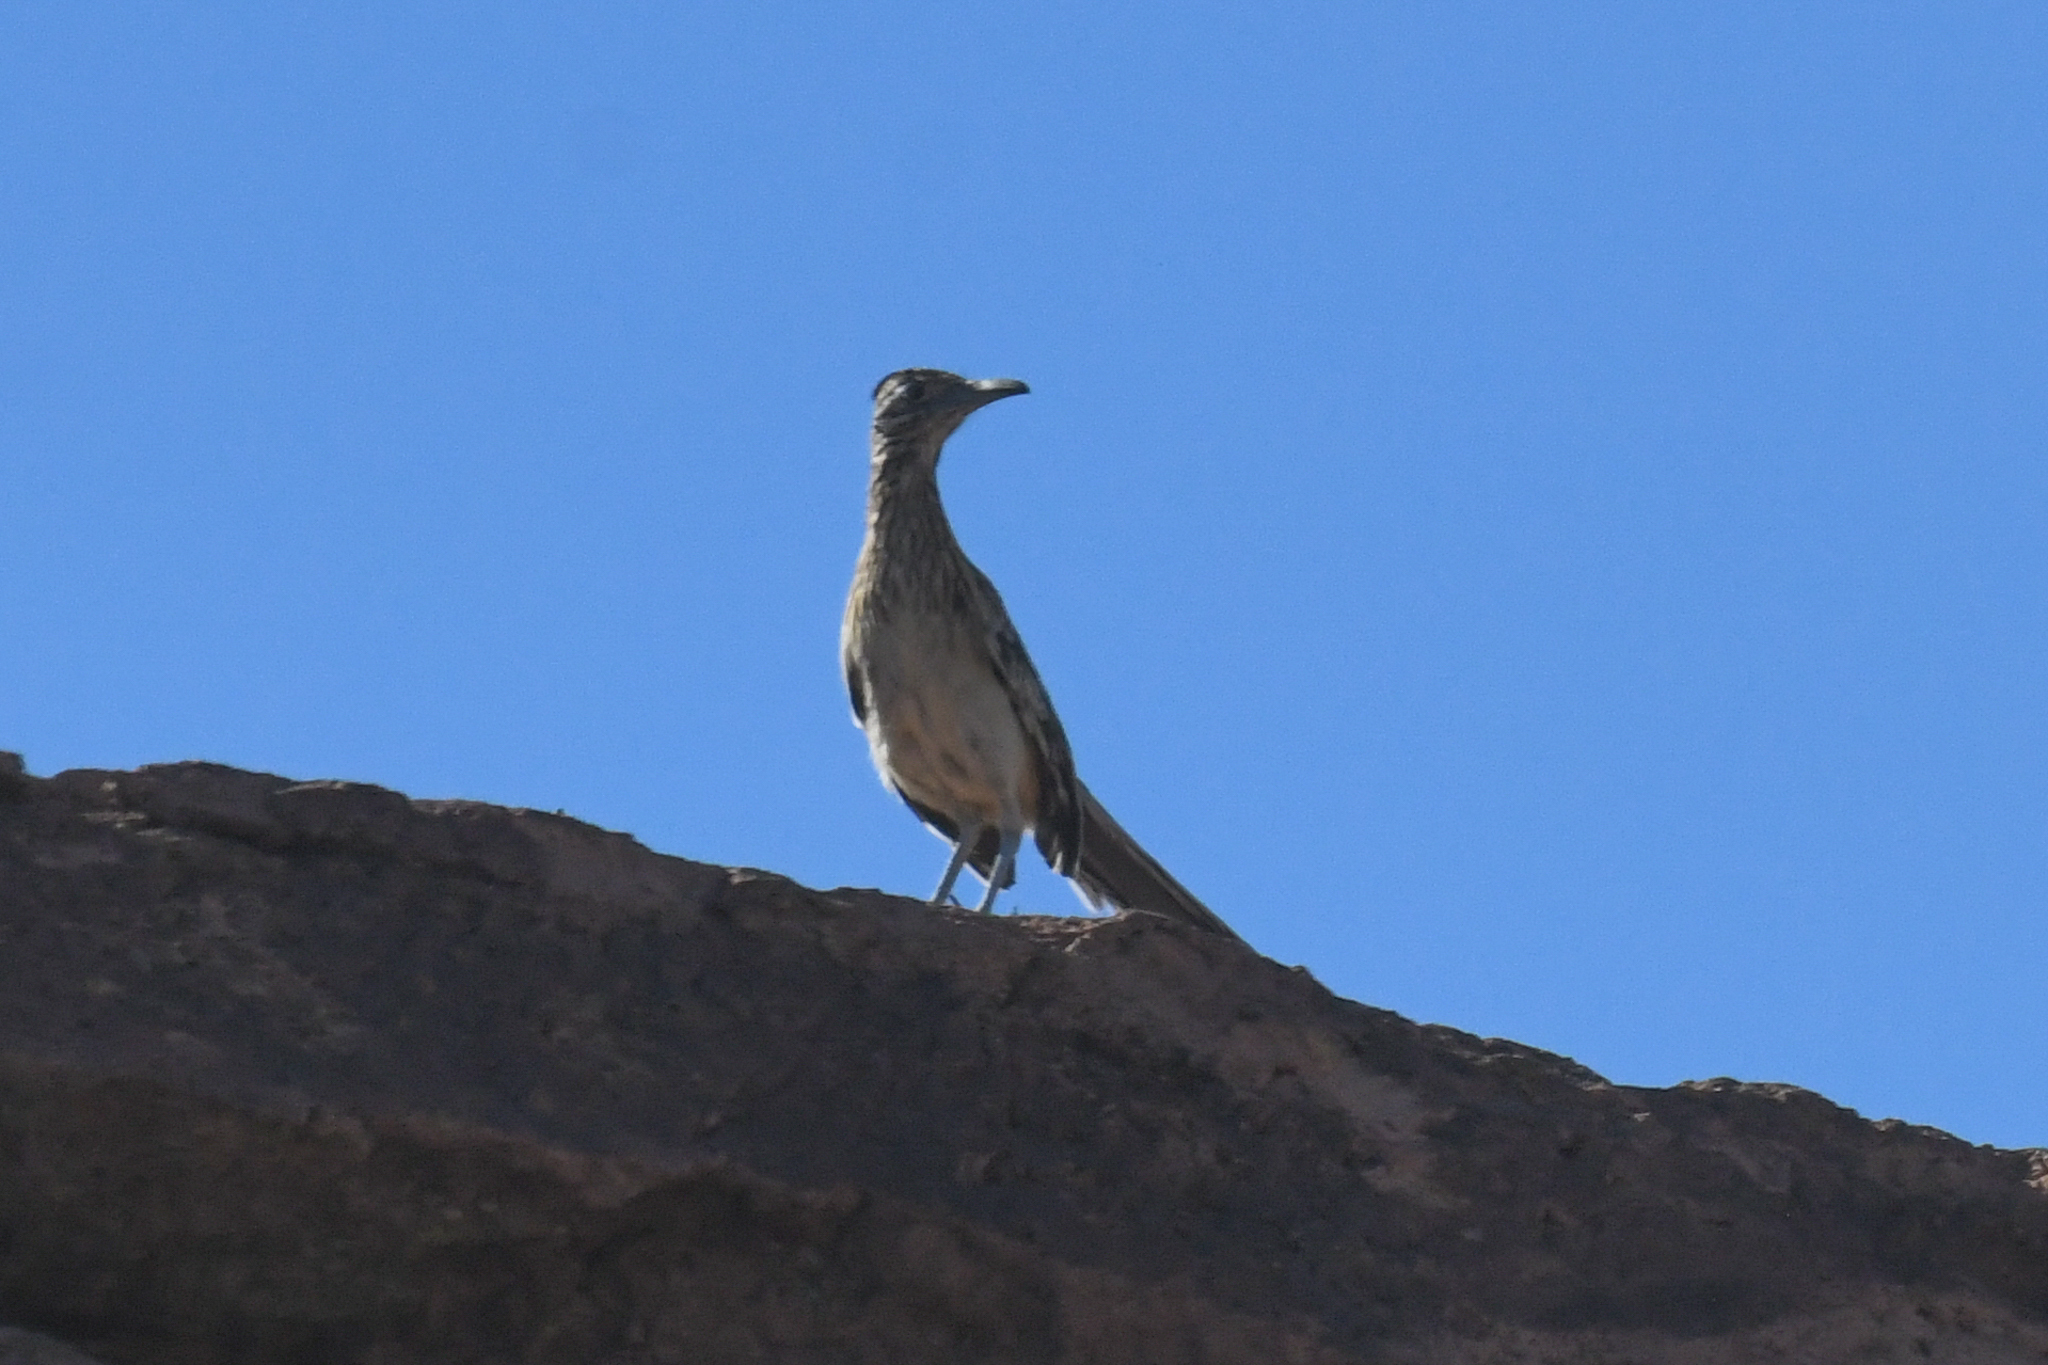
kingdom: Animalia
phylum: Chordata
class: Aves
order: Cuculiformes
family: Cuculidae
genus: Geococcyx
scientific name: Geococcyx californianus
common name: Greater roadrunner
